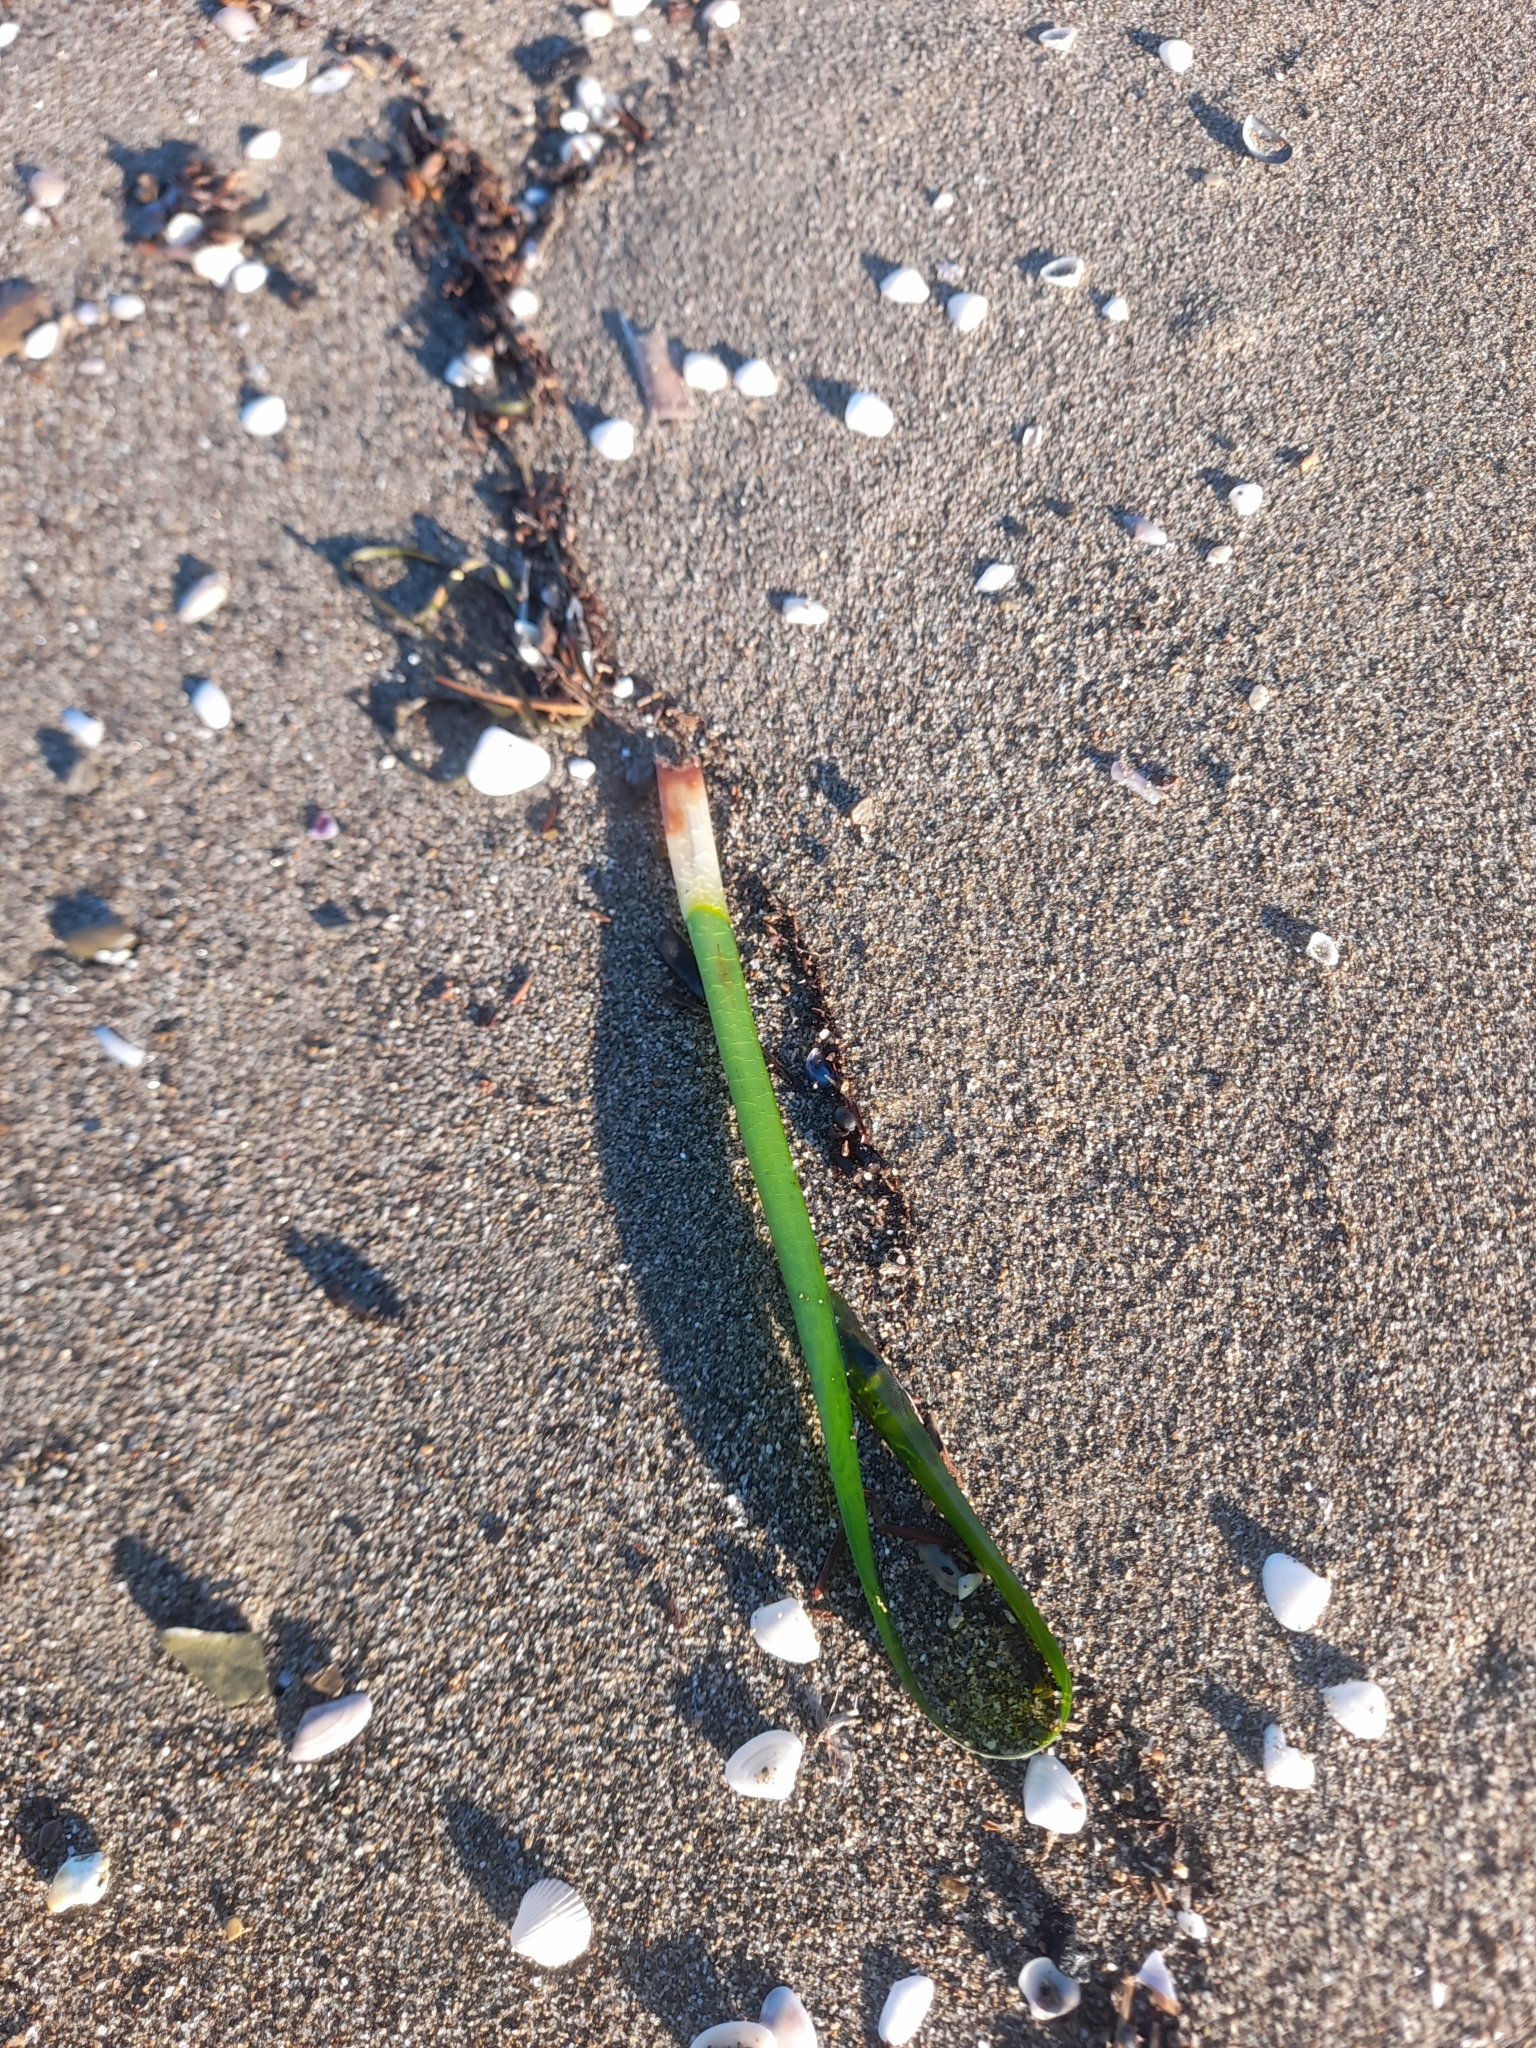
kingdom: Plantae
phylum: Tracheophyta
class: Liliopsida
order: Alismatales
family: Posidoniaceae
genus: Posidonia
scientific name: Posidonia oceanica
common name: Mediterranean tapeweed
